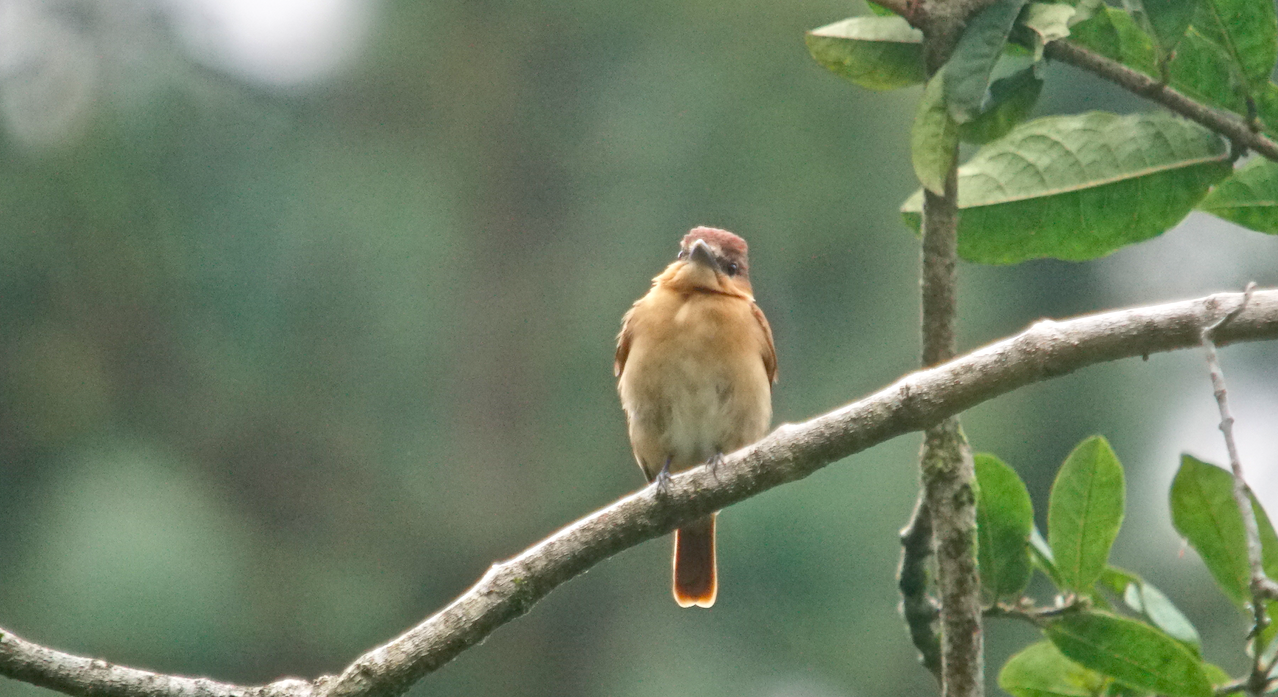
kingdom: Animalia
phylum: Chordata
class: Aves
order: Passeriformes
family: Cotingidae
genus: Pachyramphus
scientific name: Pachyramphus cinnamomeus
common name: Cinnamon becard
